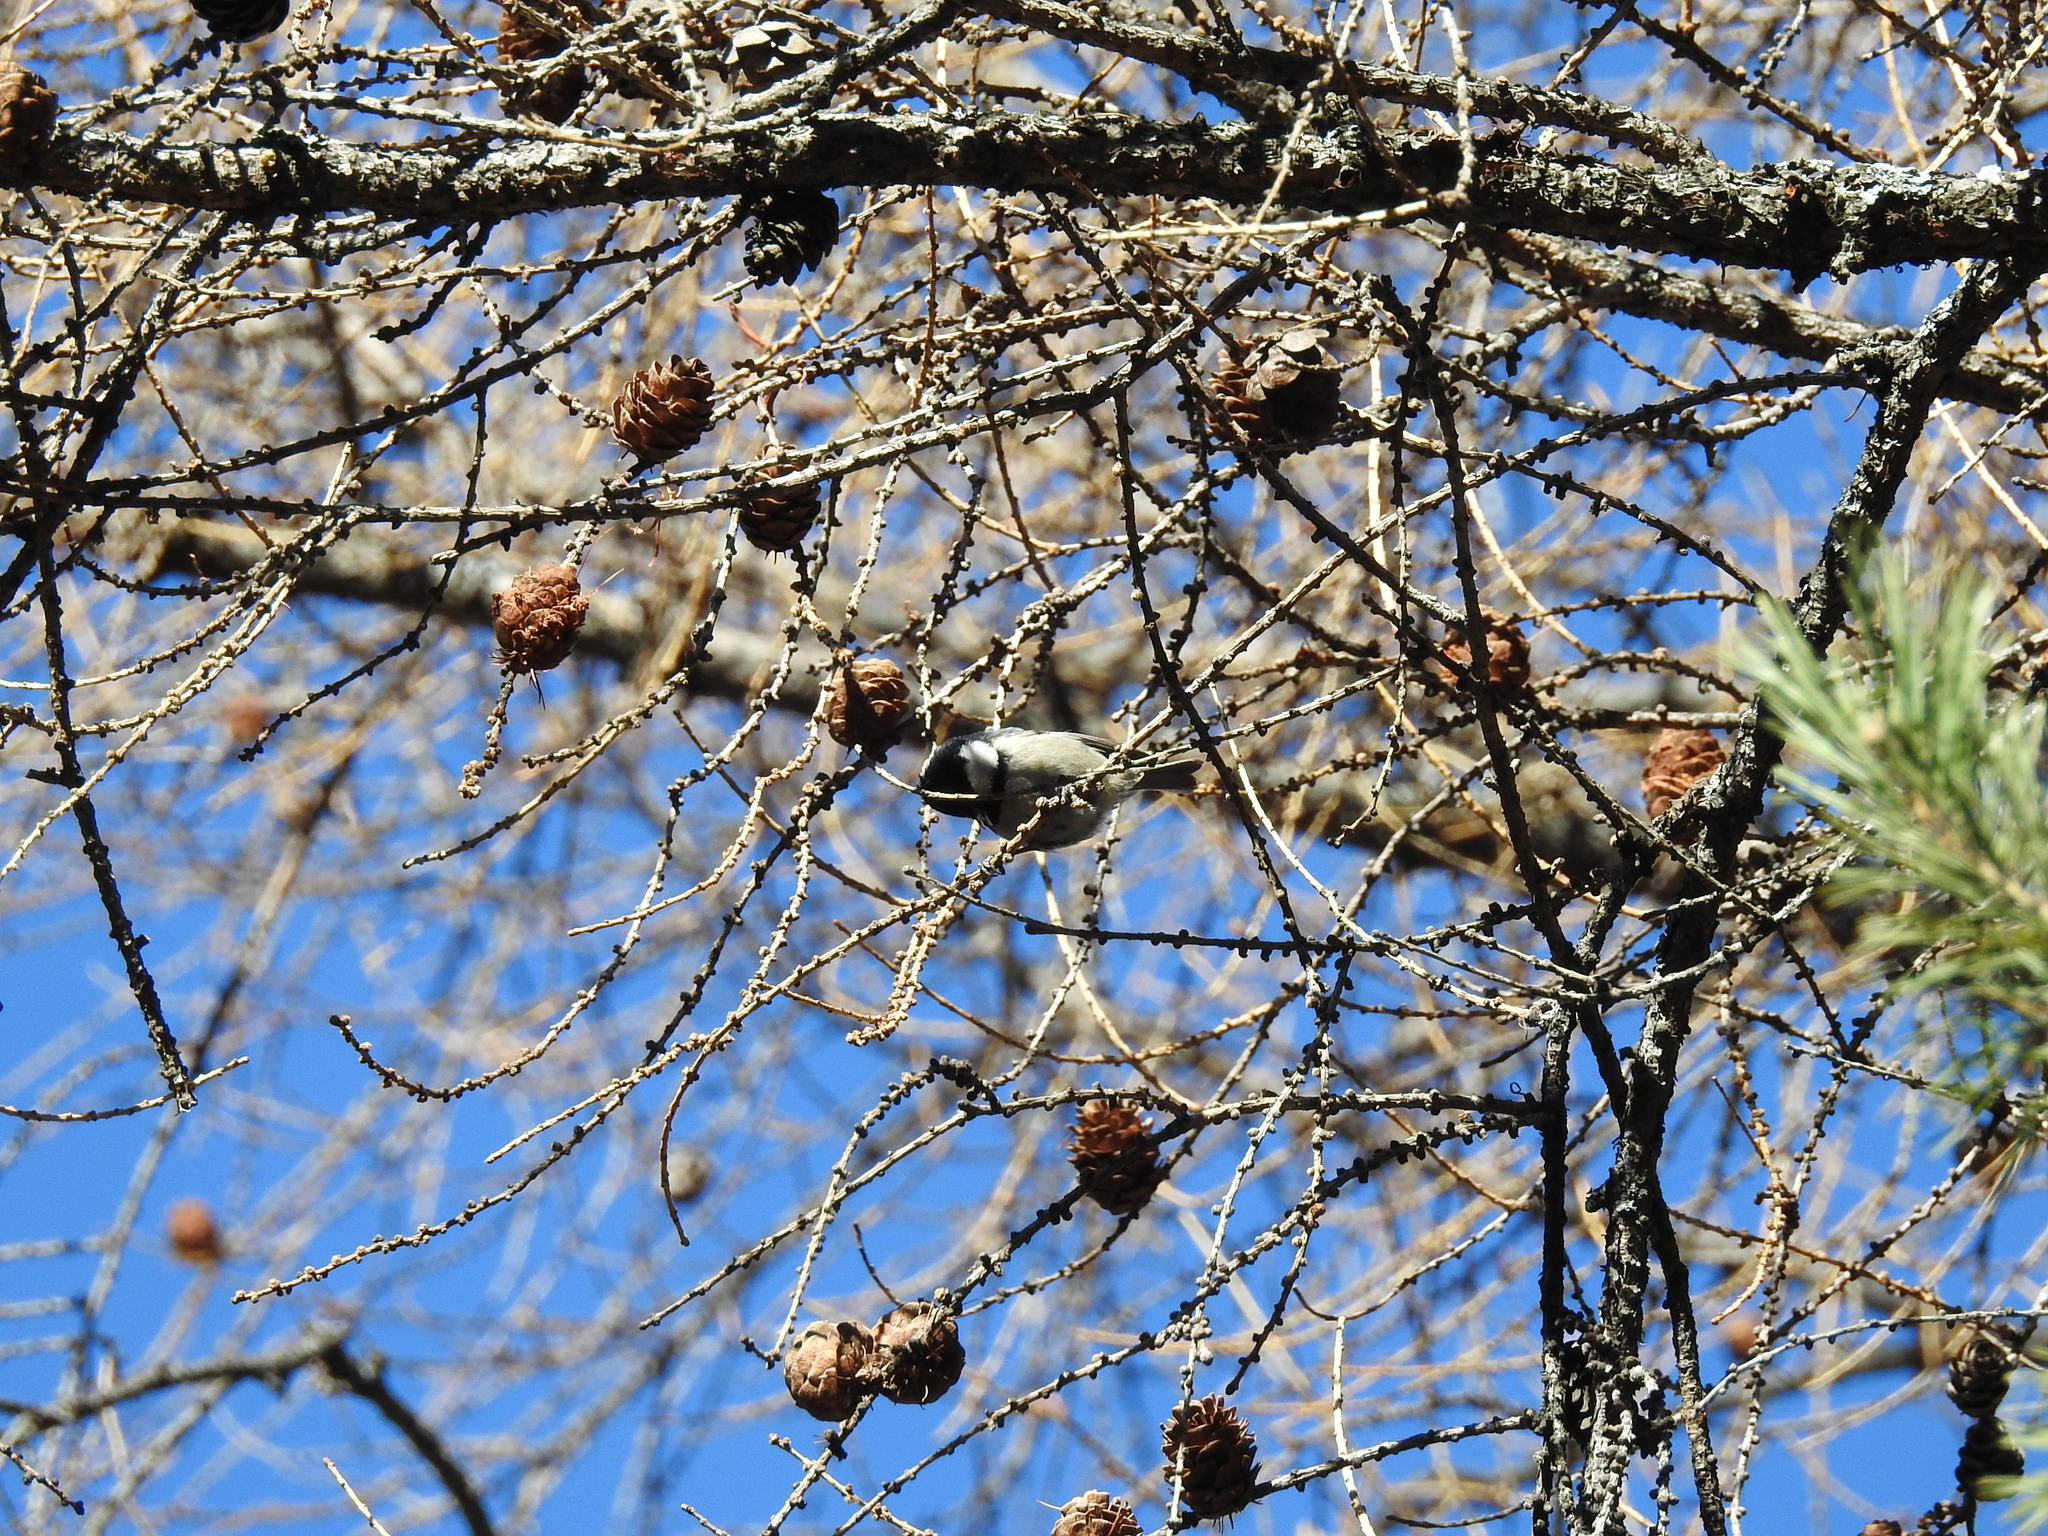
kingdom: Animalia
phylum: Chordata
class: Aves
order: Passeriformes
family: Paridae
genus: Periparus
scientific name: Periparus ater
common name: Coal tit
